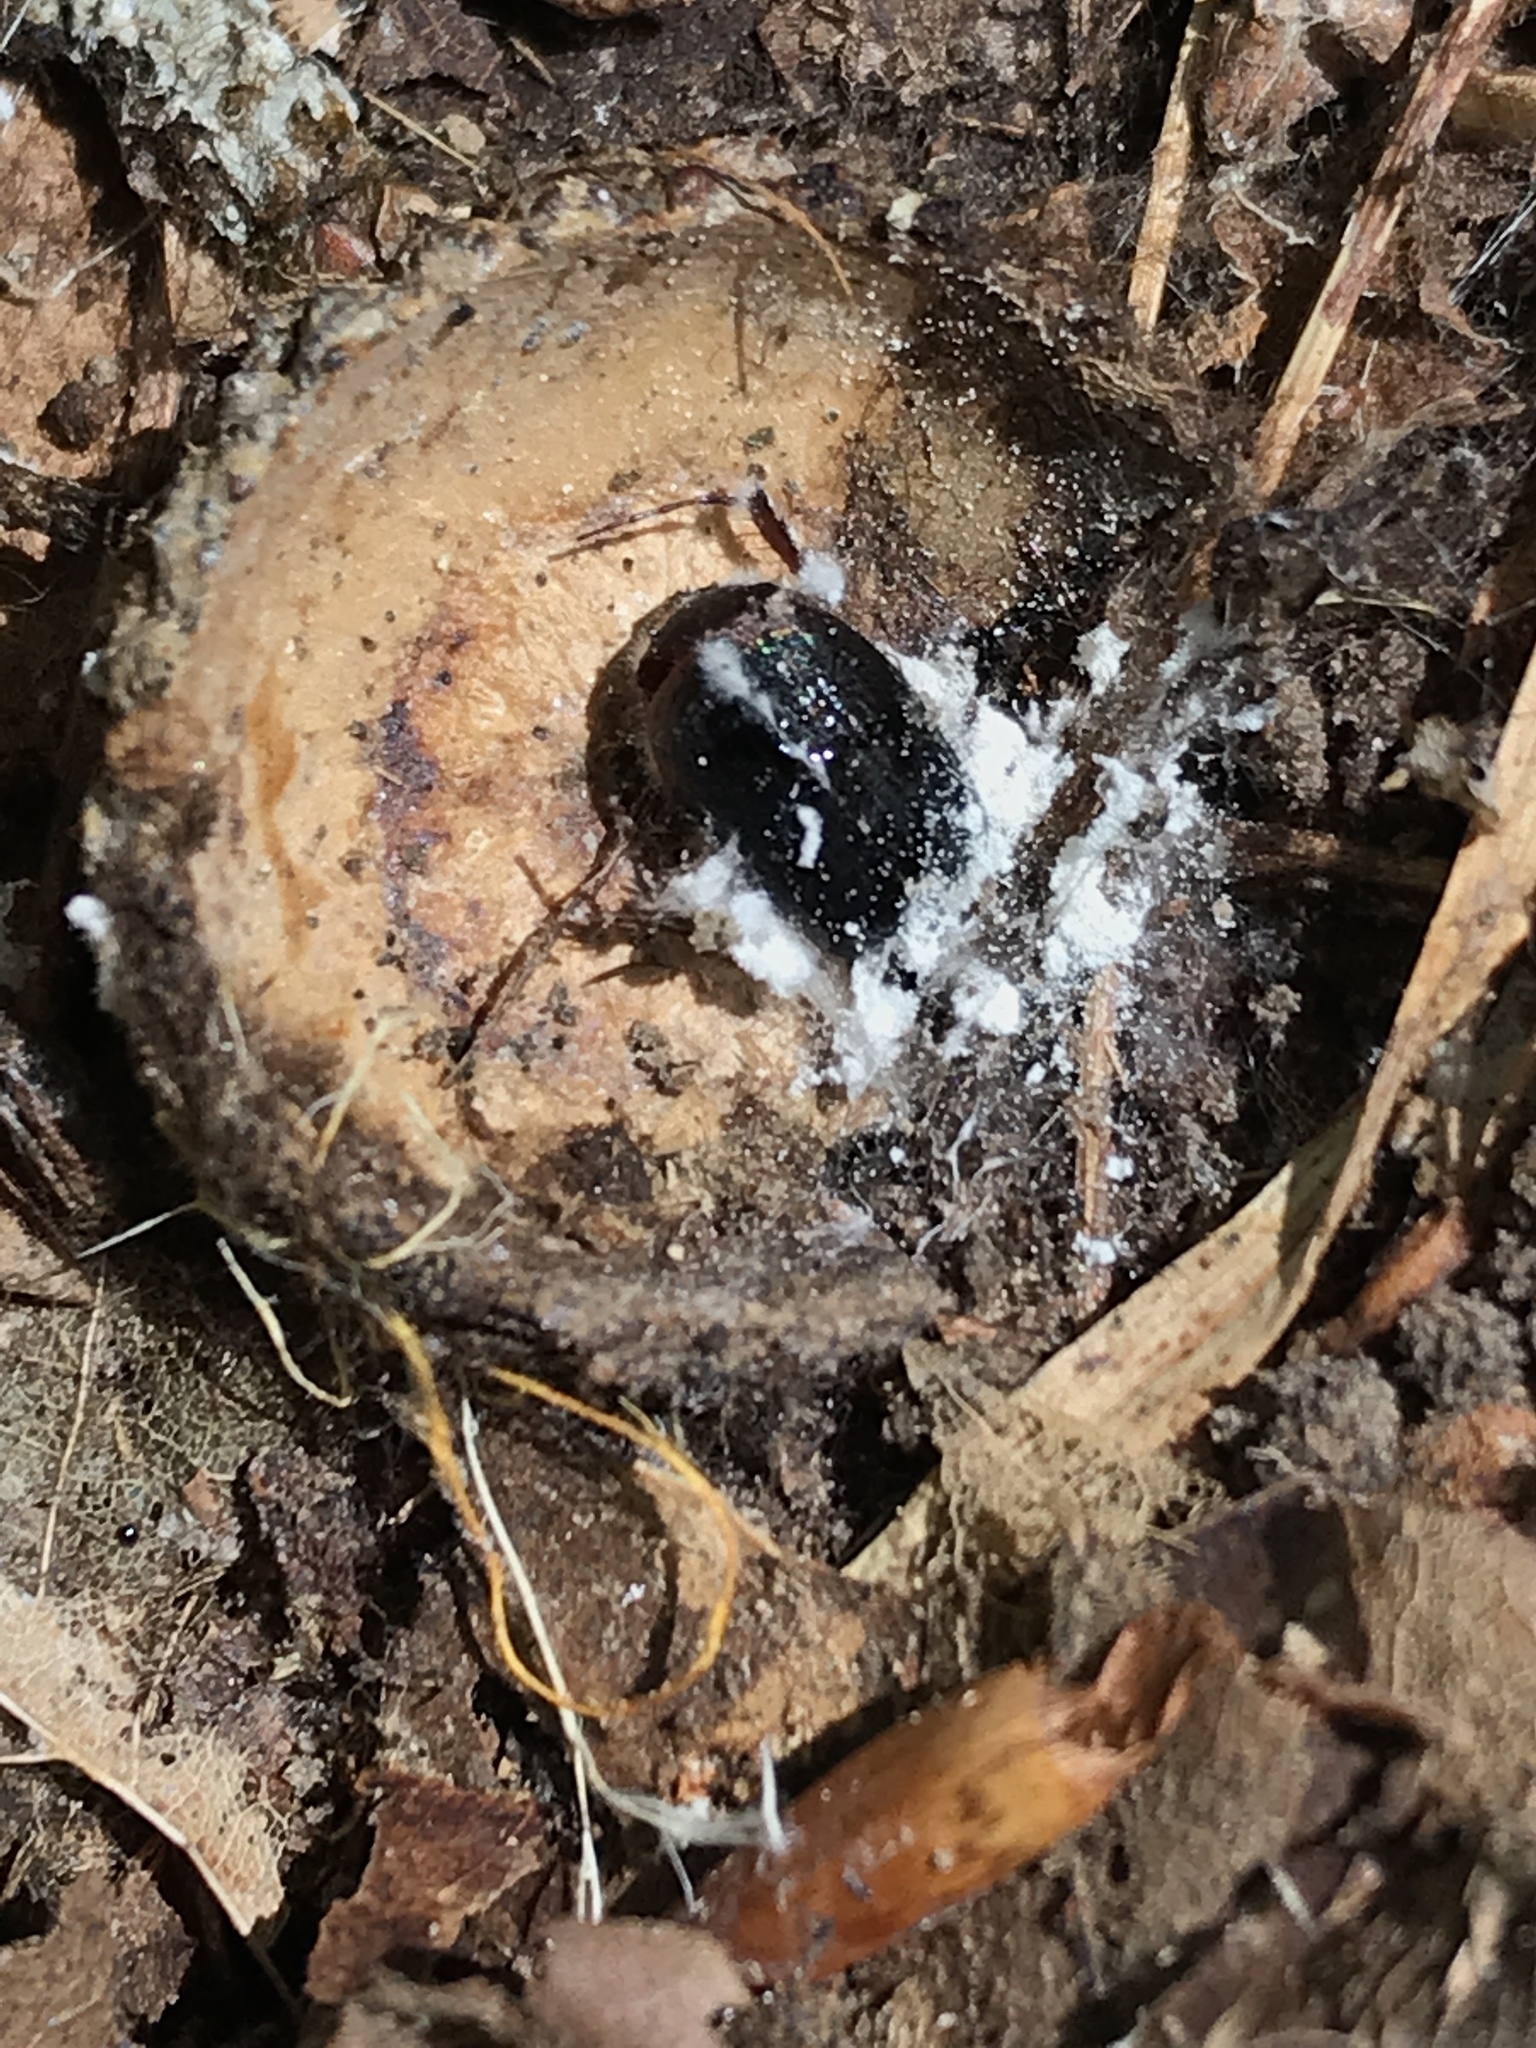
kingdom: Fungi
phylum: Ascomycota
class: Sordariomycetes
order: Hypocreales
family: Cordycipitaceae
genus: Beauveria
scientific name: Beauveria brongniartii
